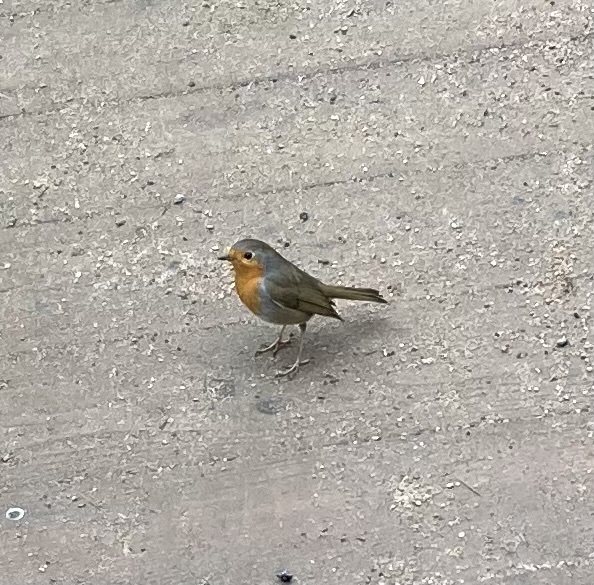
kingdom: Animalia
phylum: Chordata
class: Aves
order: Passeriformes
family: Muscicapidae
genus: Erithacus
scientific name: Erithacus rubecula
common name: European robin
